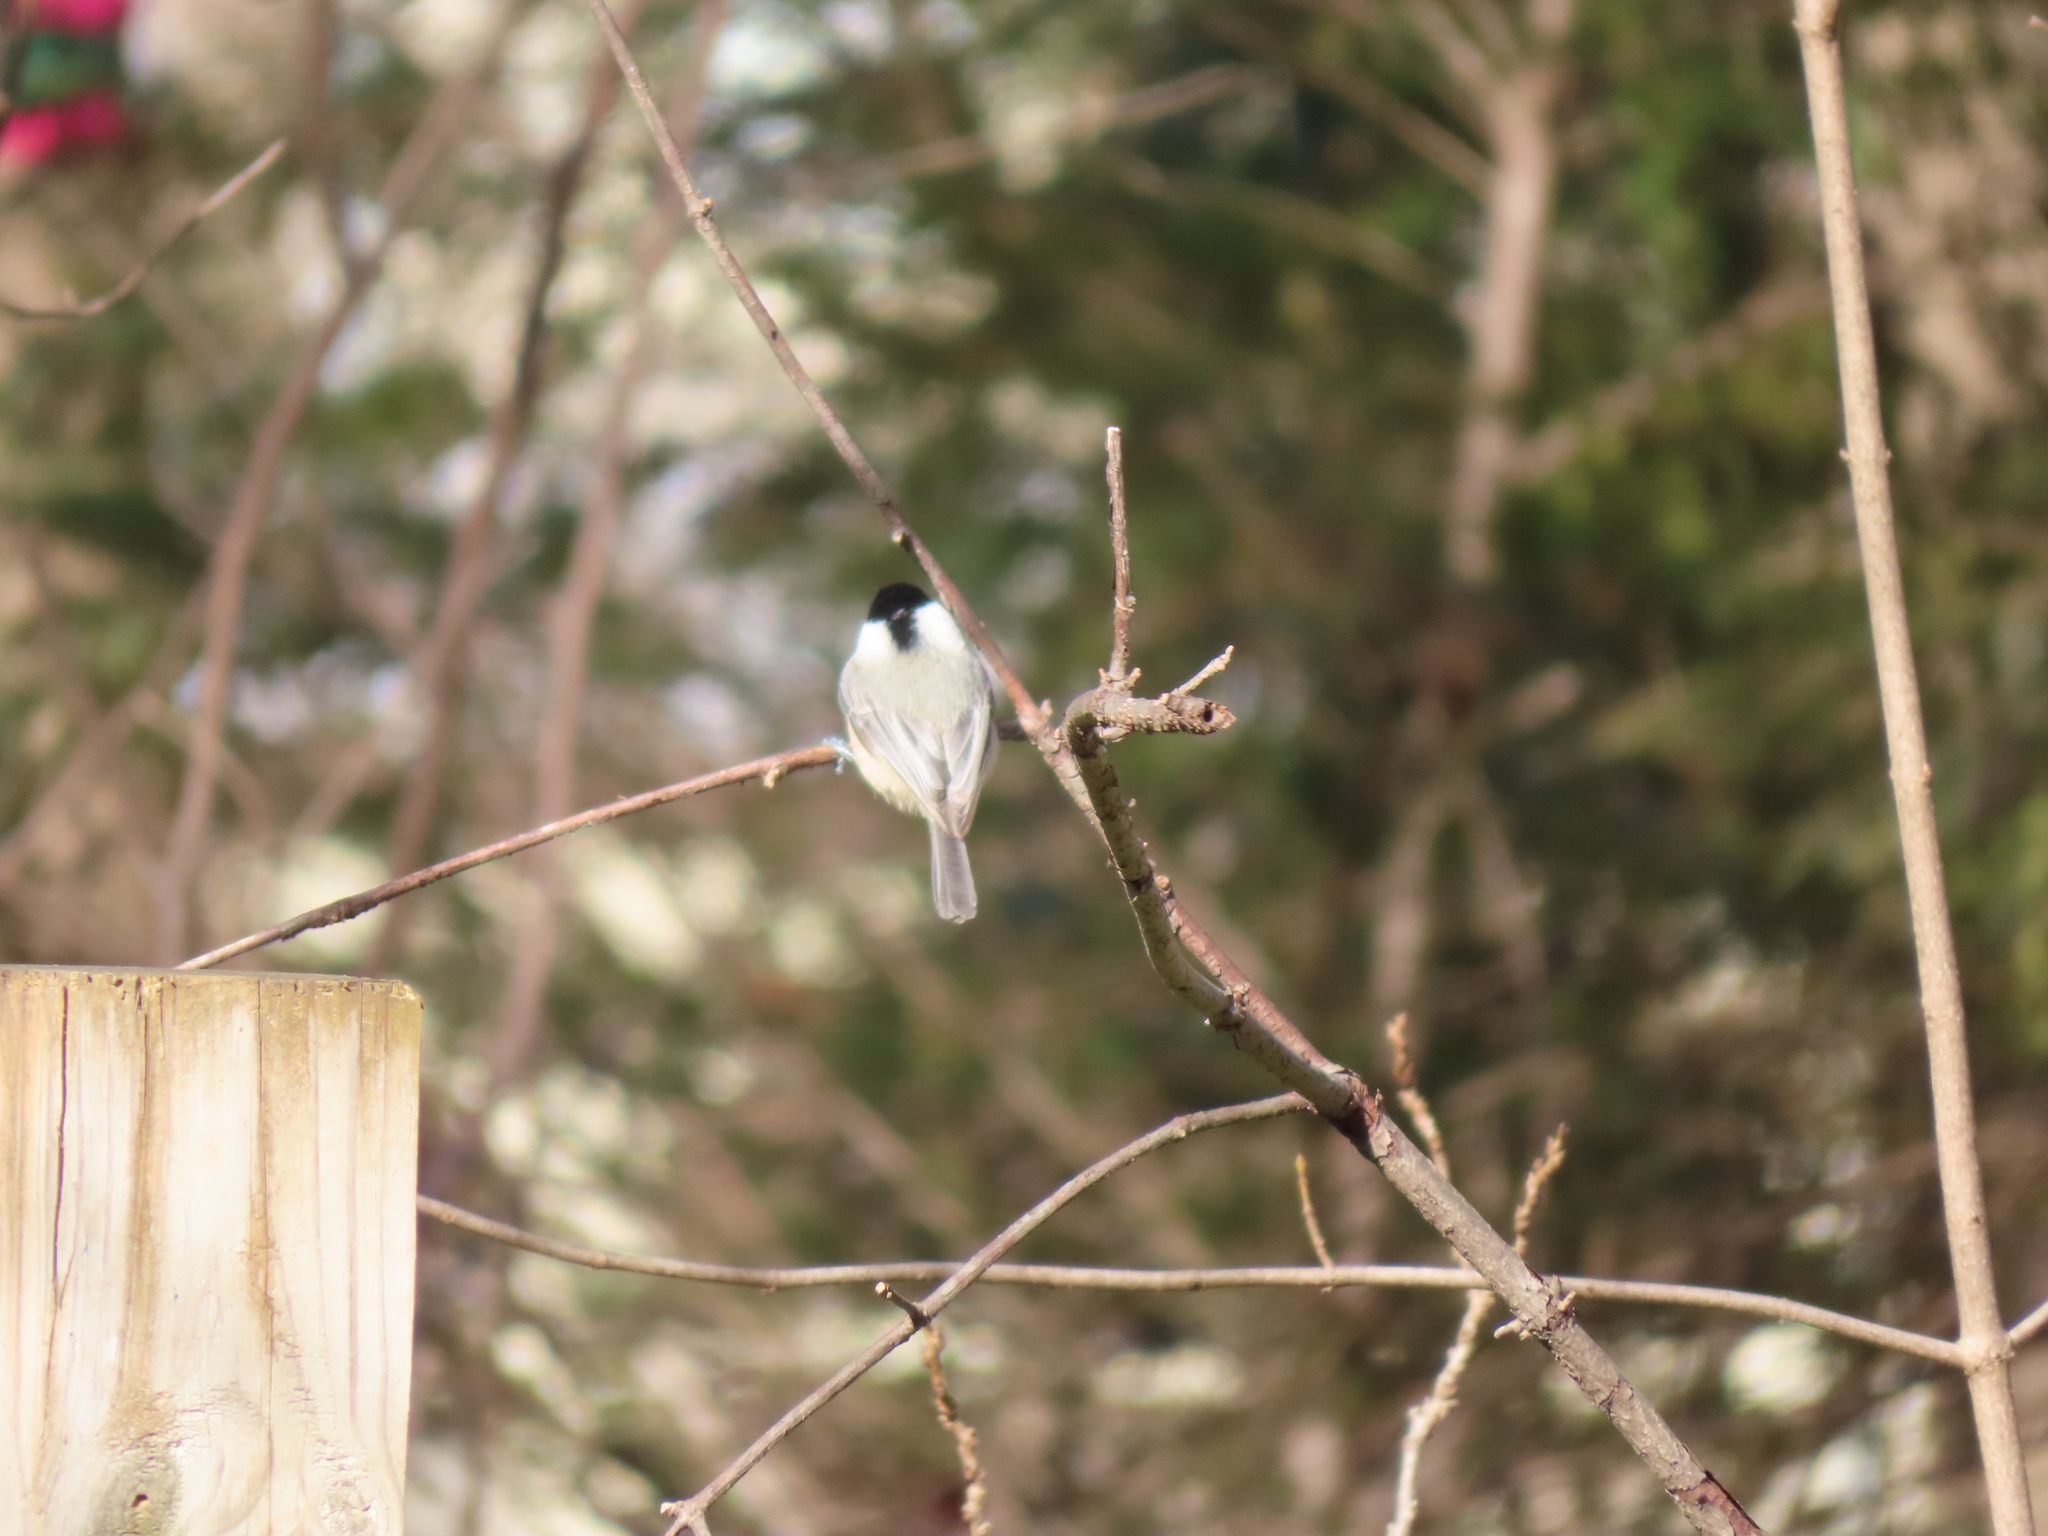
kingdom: Animalia
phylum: Chordata
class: Aves
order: Passeriformes
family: Paridae
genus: Poecile
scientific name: Poecile carolinensis
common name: Carolina chickadee
